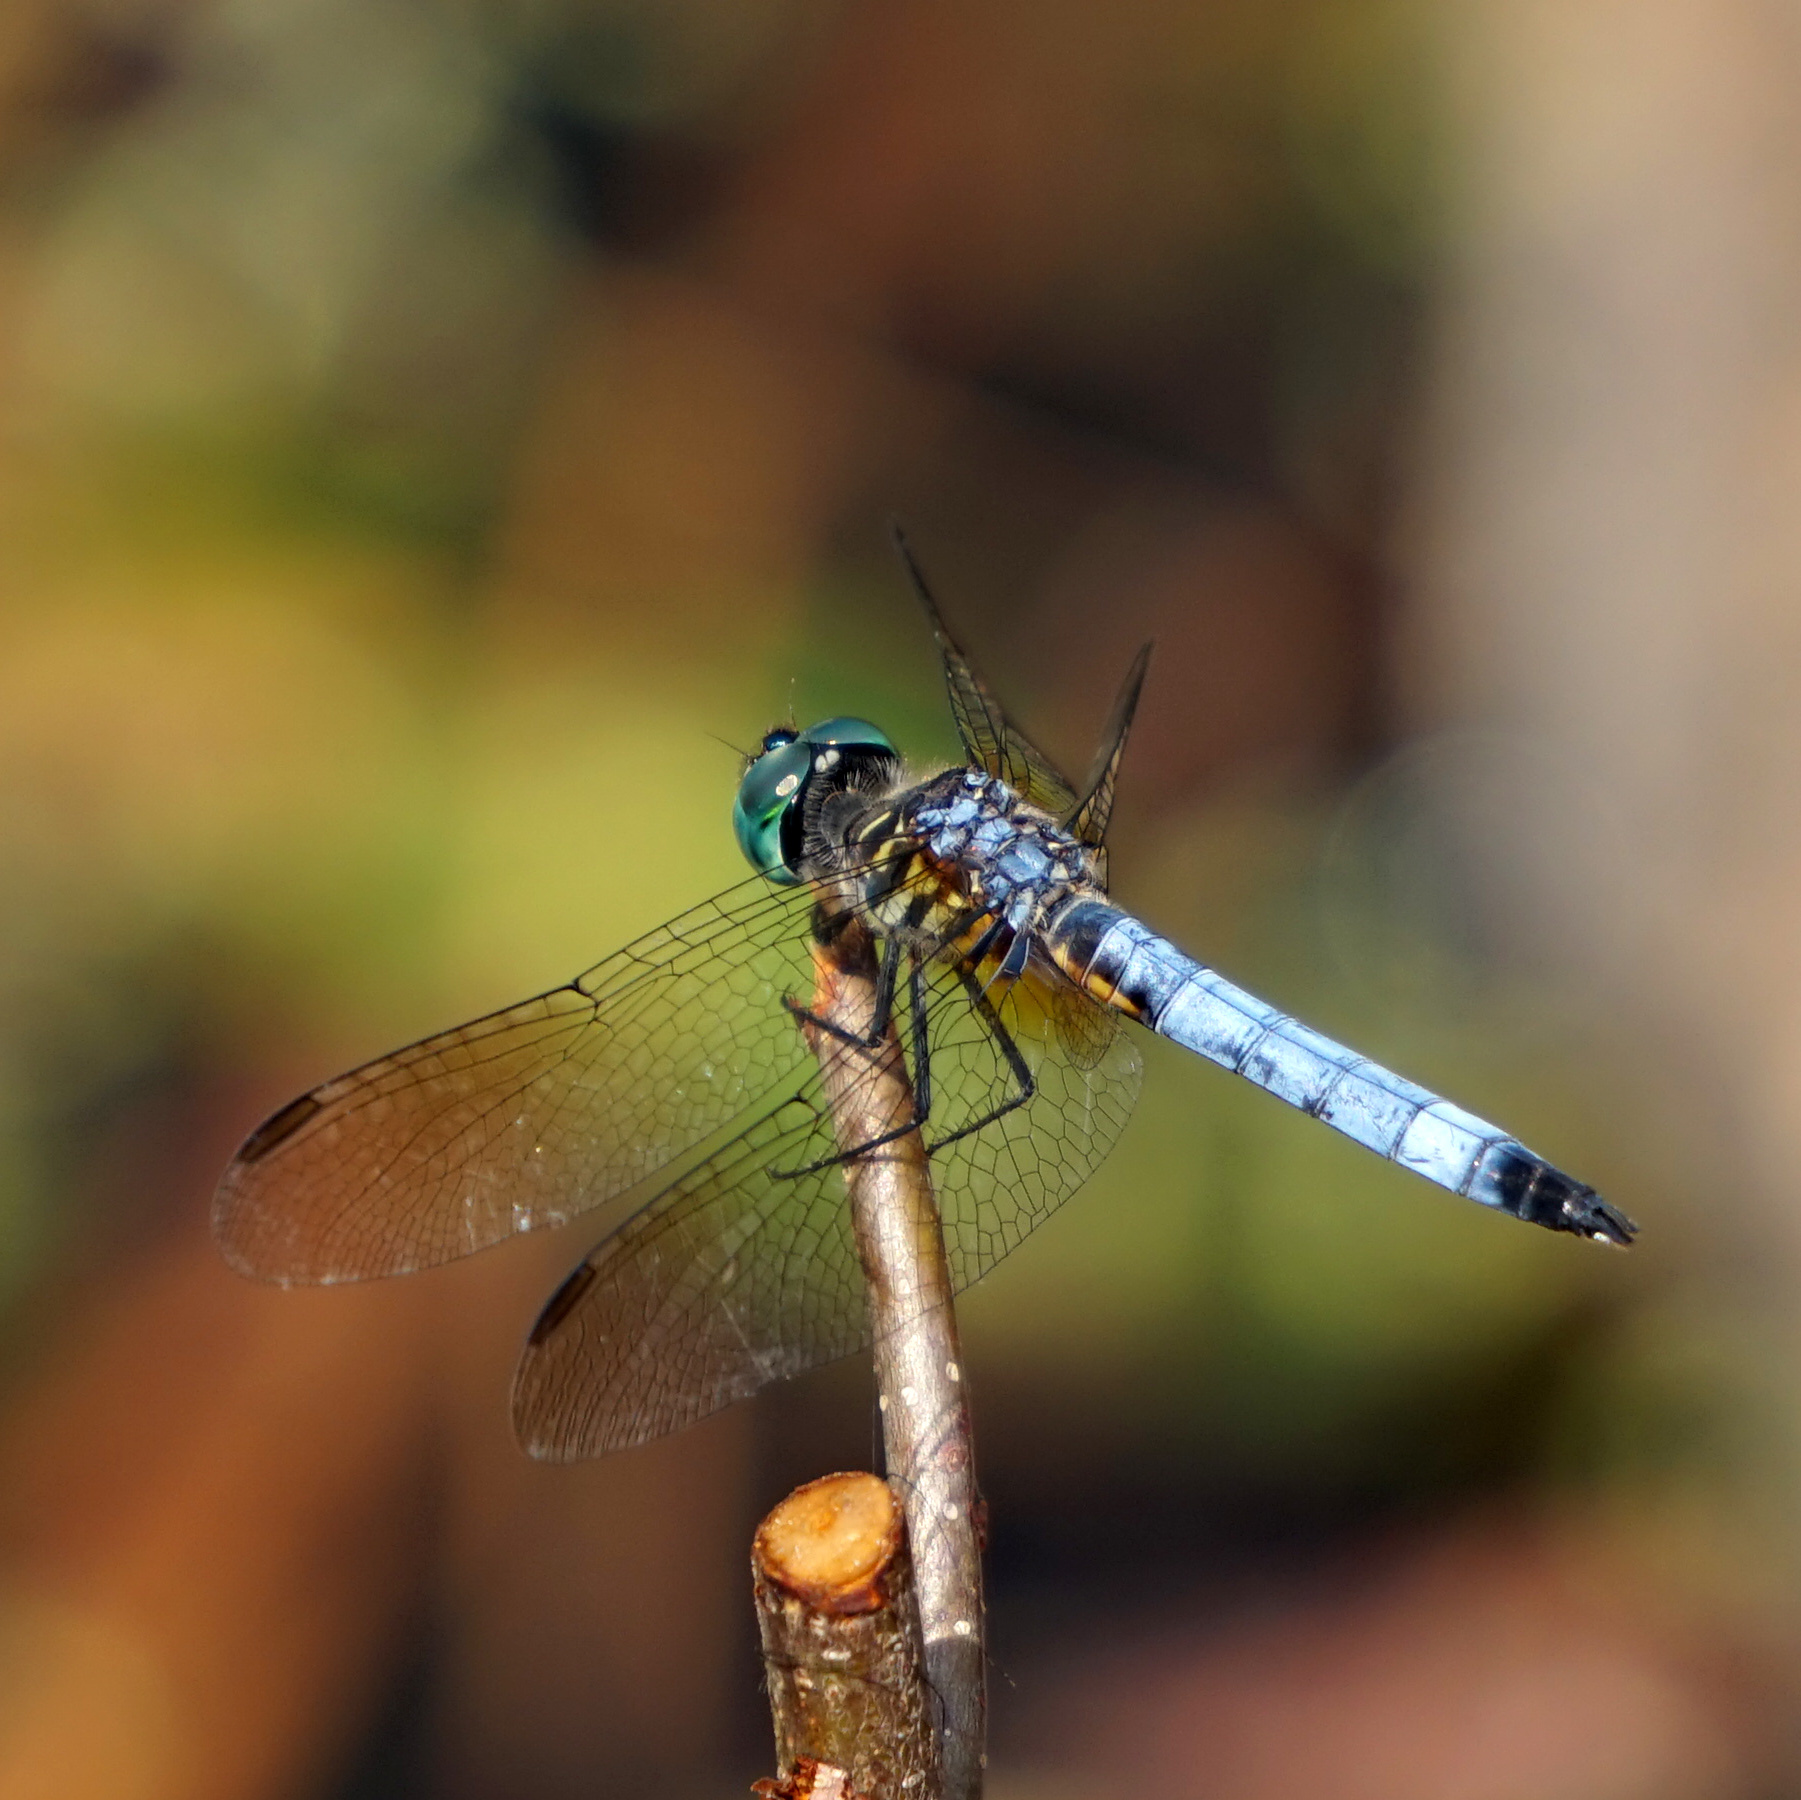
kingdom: Animalia
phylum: Arthropoda
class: Insecta
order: Odonata
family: Libellulidae
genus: Pachydiplax
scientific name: Pachydiplax longipennis
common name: Blue dasher
